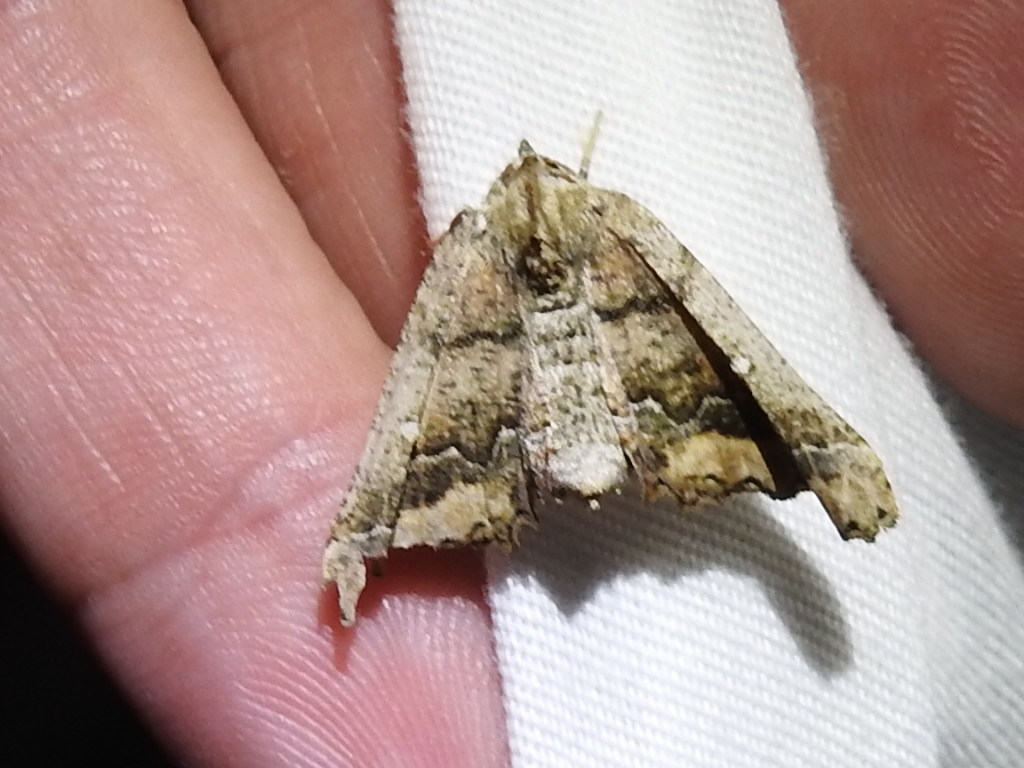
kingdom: Animalia
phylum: Arthropoda
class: Insecta
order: Lepidoptera
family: Geometridae
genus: Pero
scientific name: Pero meskaria
